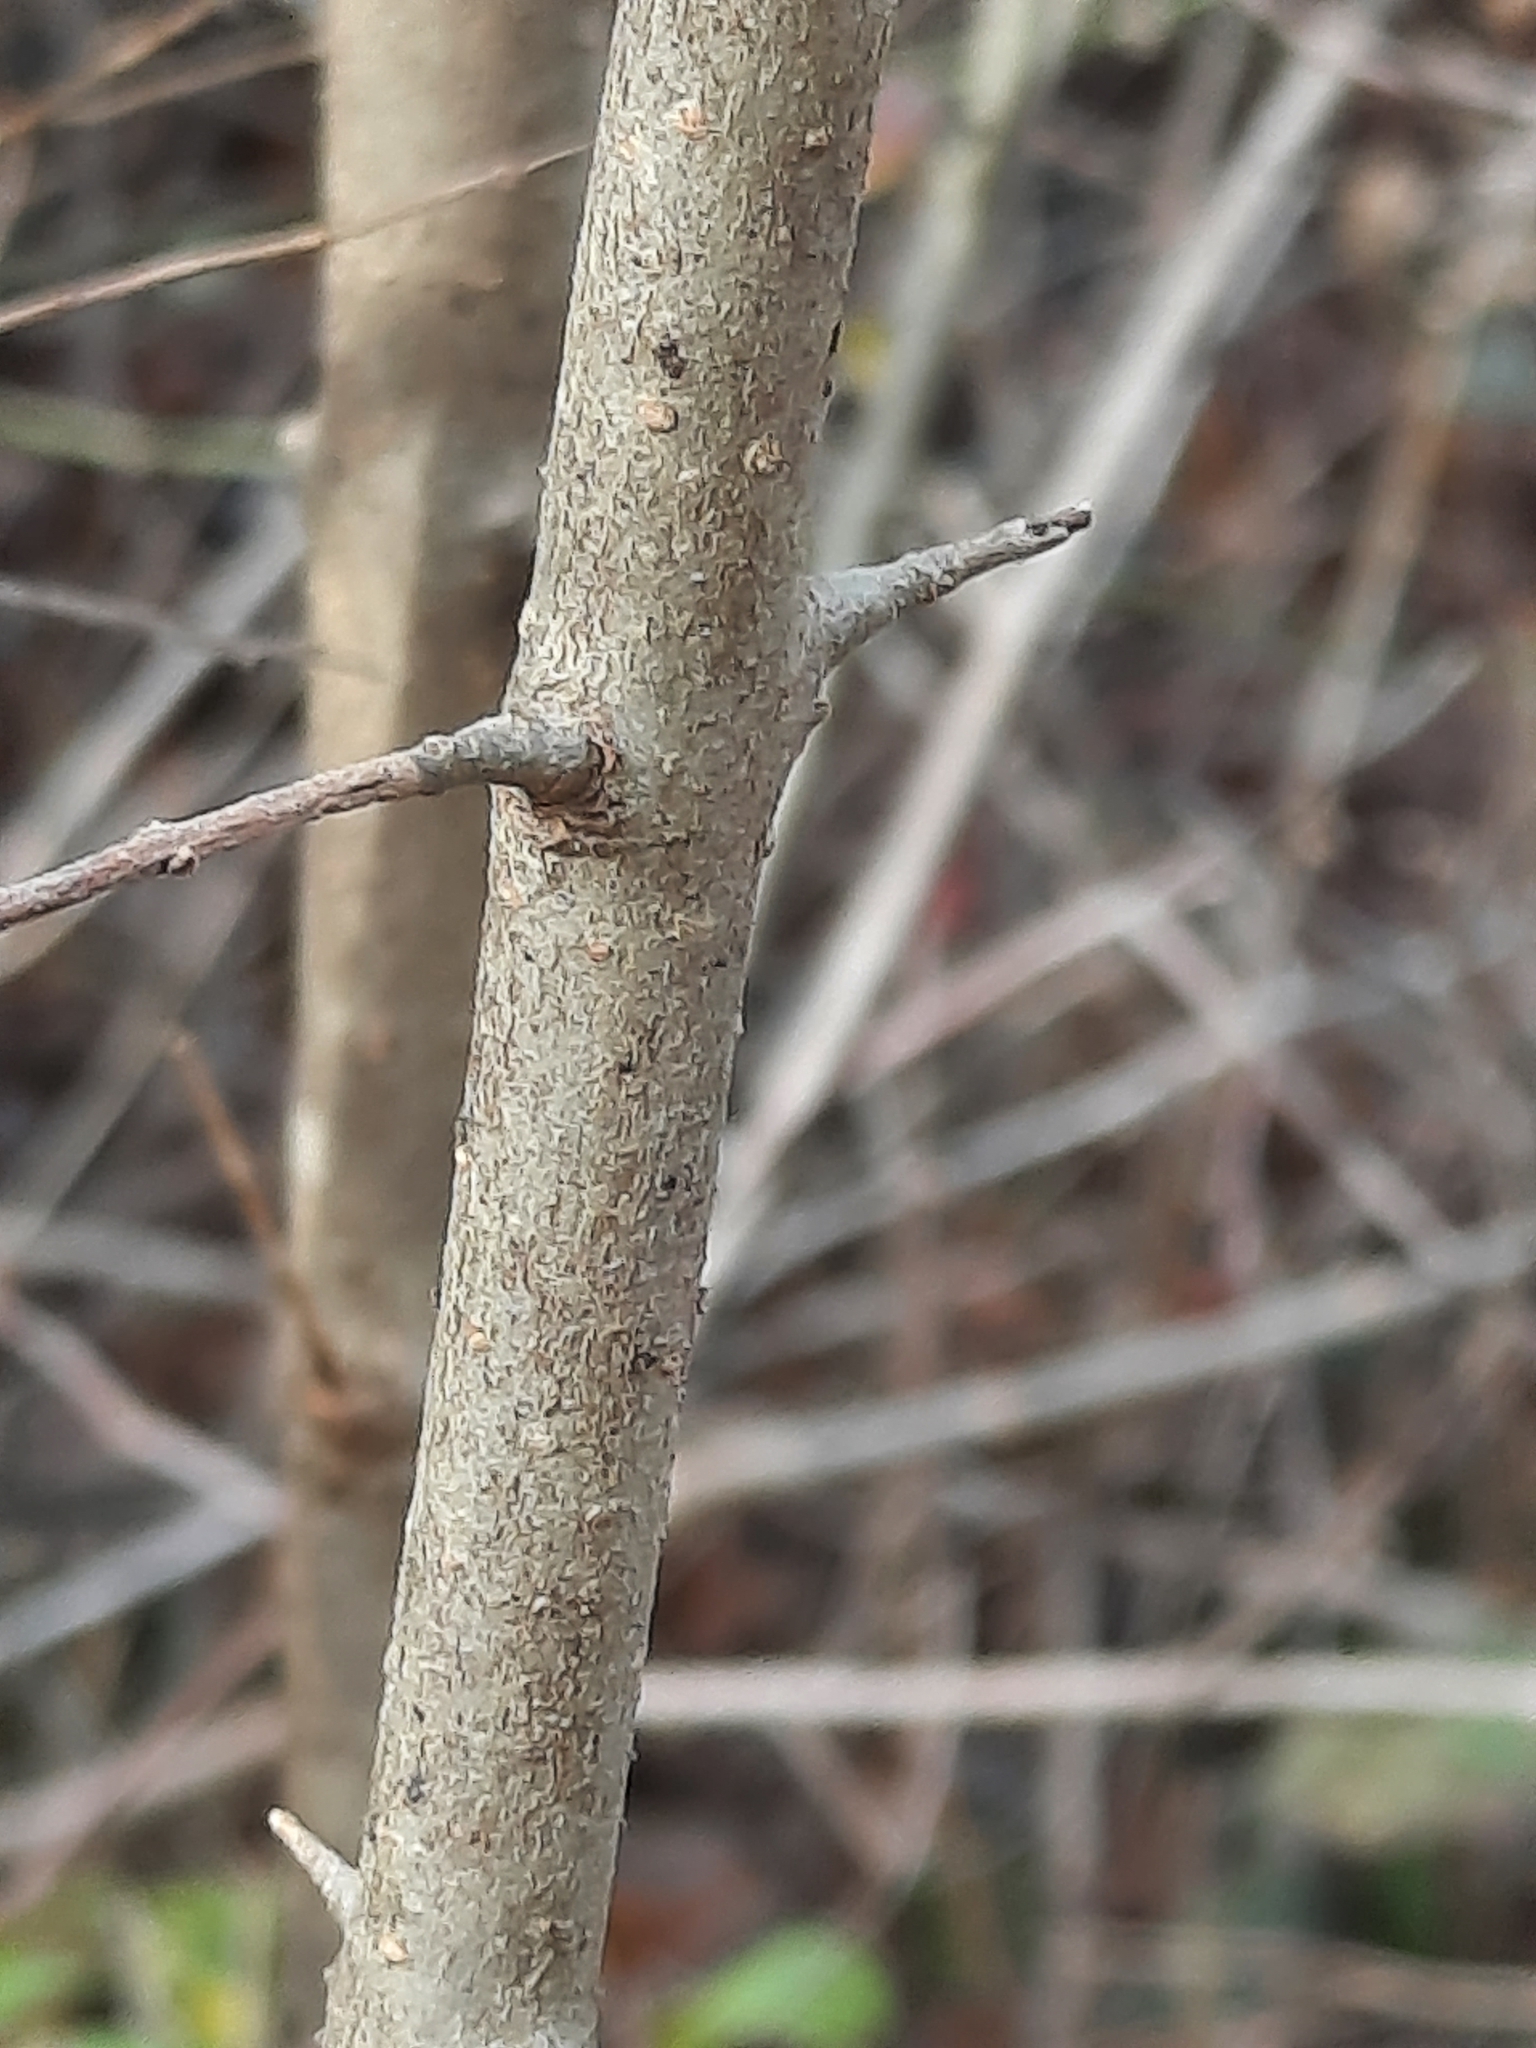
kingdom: Plantae
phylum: Tracheophyta
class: Magnoliopsida
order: Lamiales
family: Oleaceae
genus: Ligustrum
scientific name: Ligustrum obtusifolium
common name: Border privet
